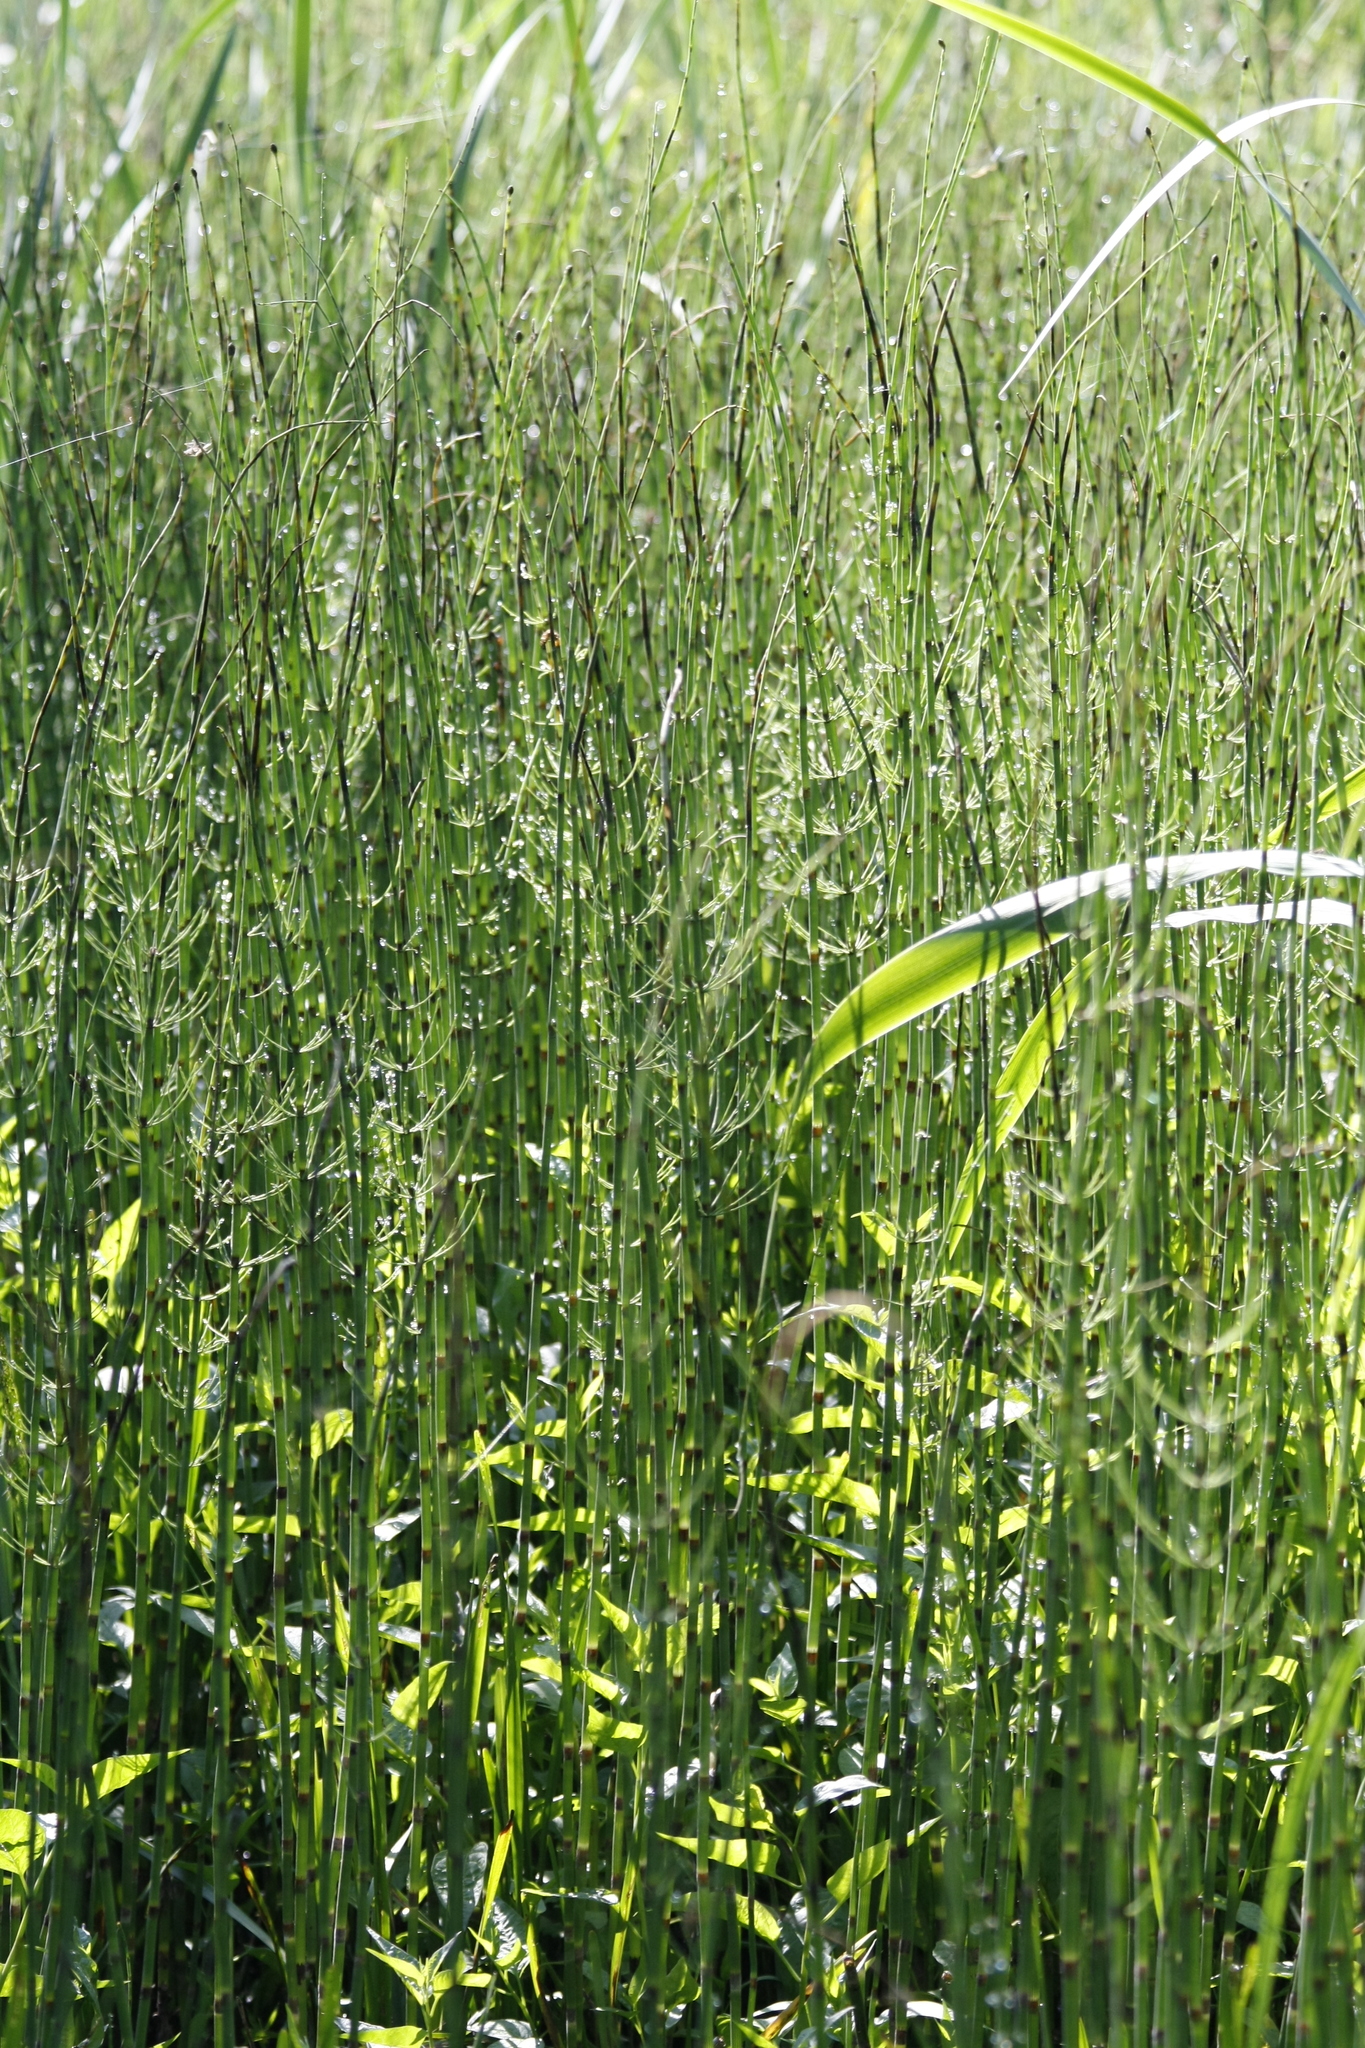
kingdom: Plantae
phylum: Tracheophyta
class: Polypodiopsida
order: Equisetales
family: Equisetaceae
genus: Equisetum
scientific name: Equisetum fluviatile
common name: Water horsetail
